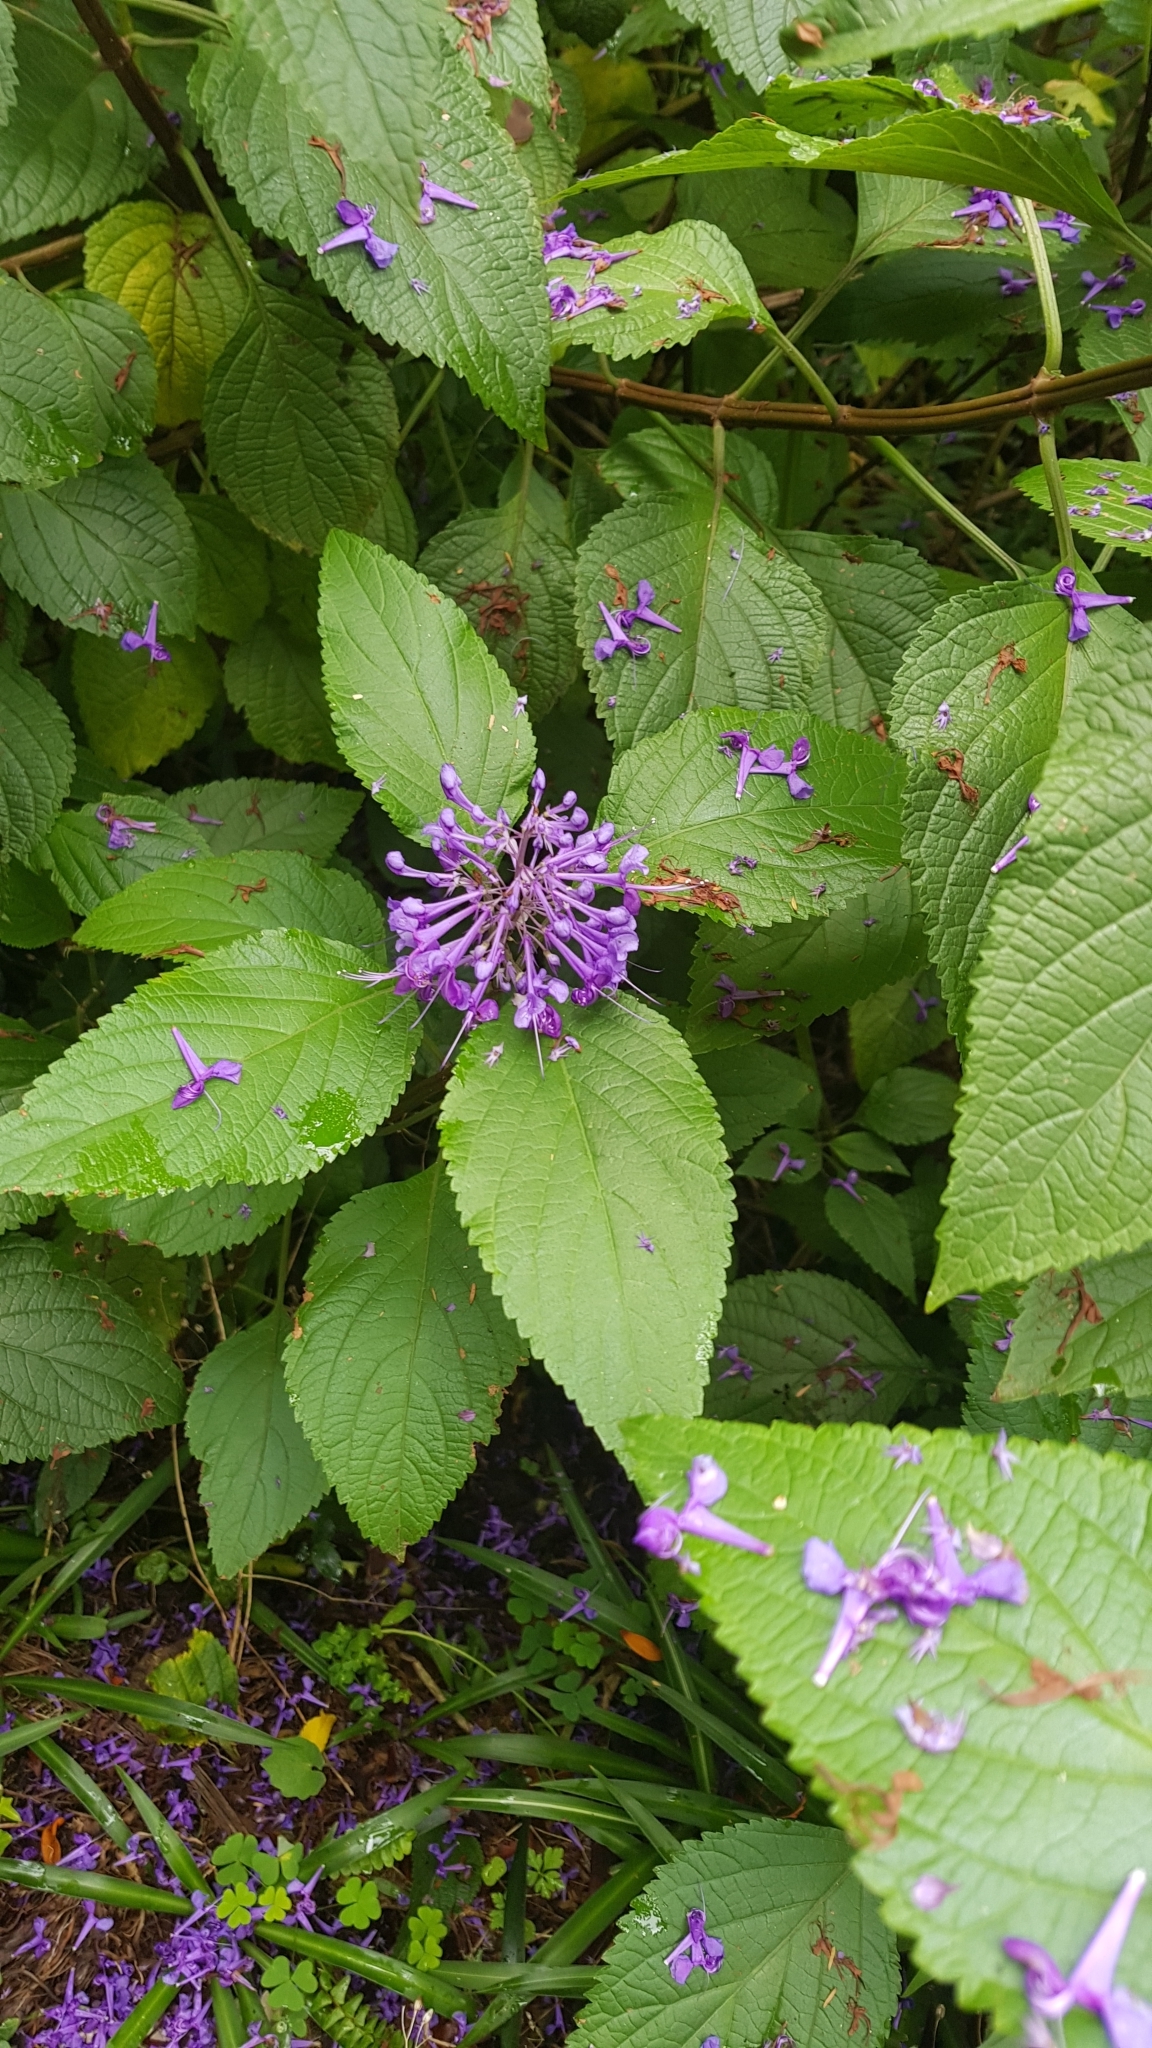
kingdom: Plantae
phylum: Tracheophyta
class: Magnoliopsida
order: Lamiales
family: Lamiaceae
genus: Plectranthus
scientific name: Plectranthus ecklonii
